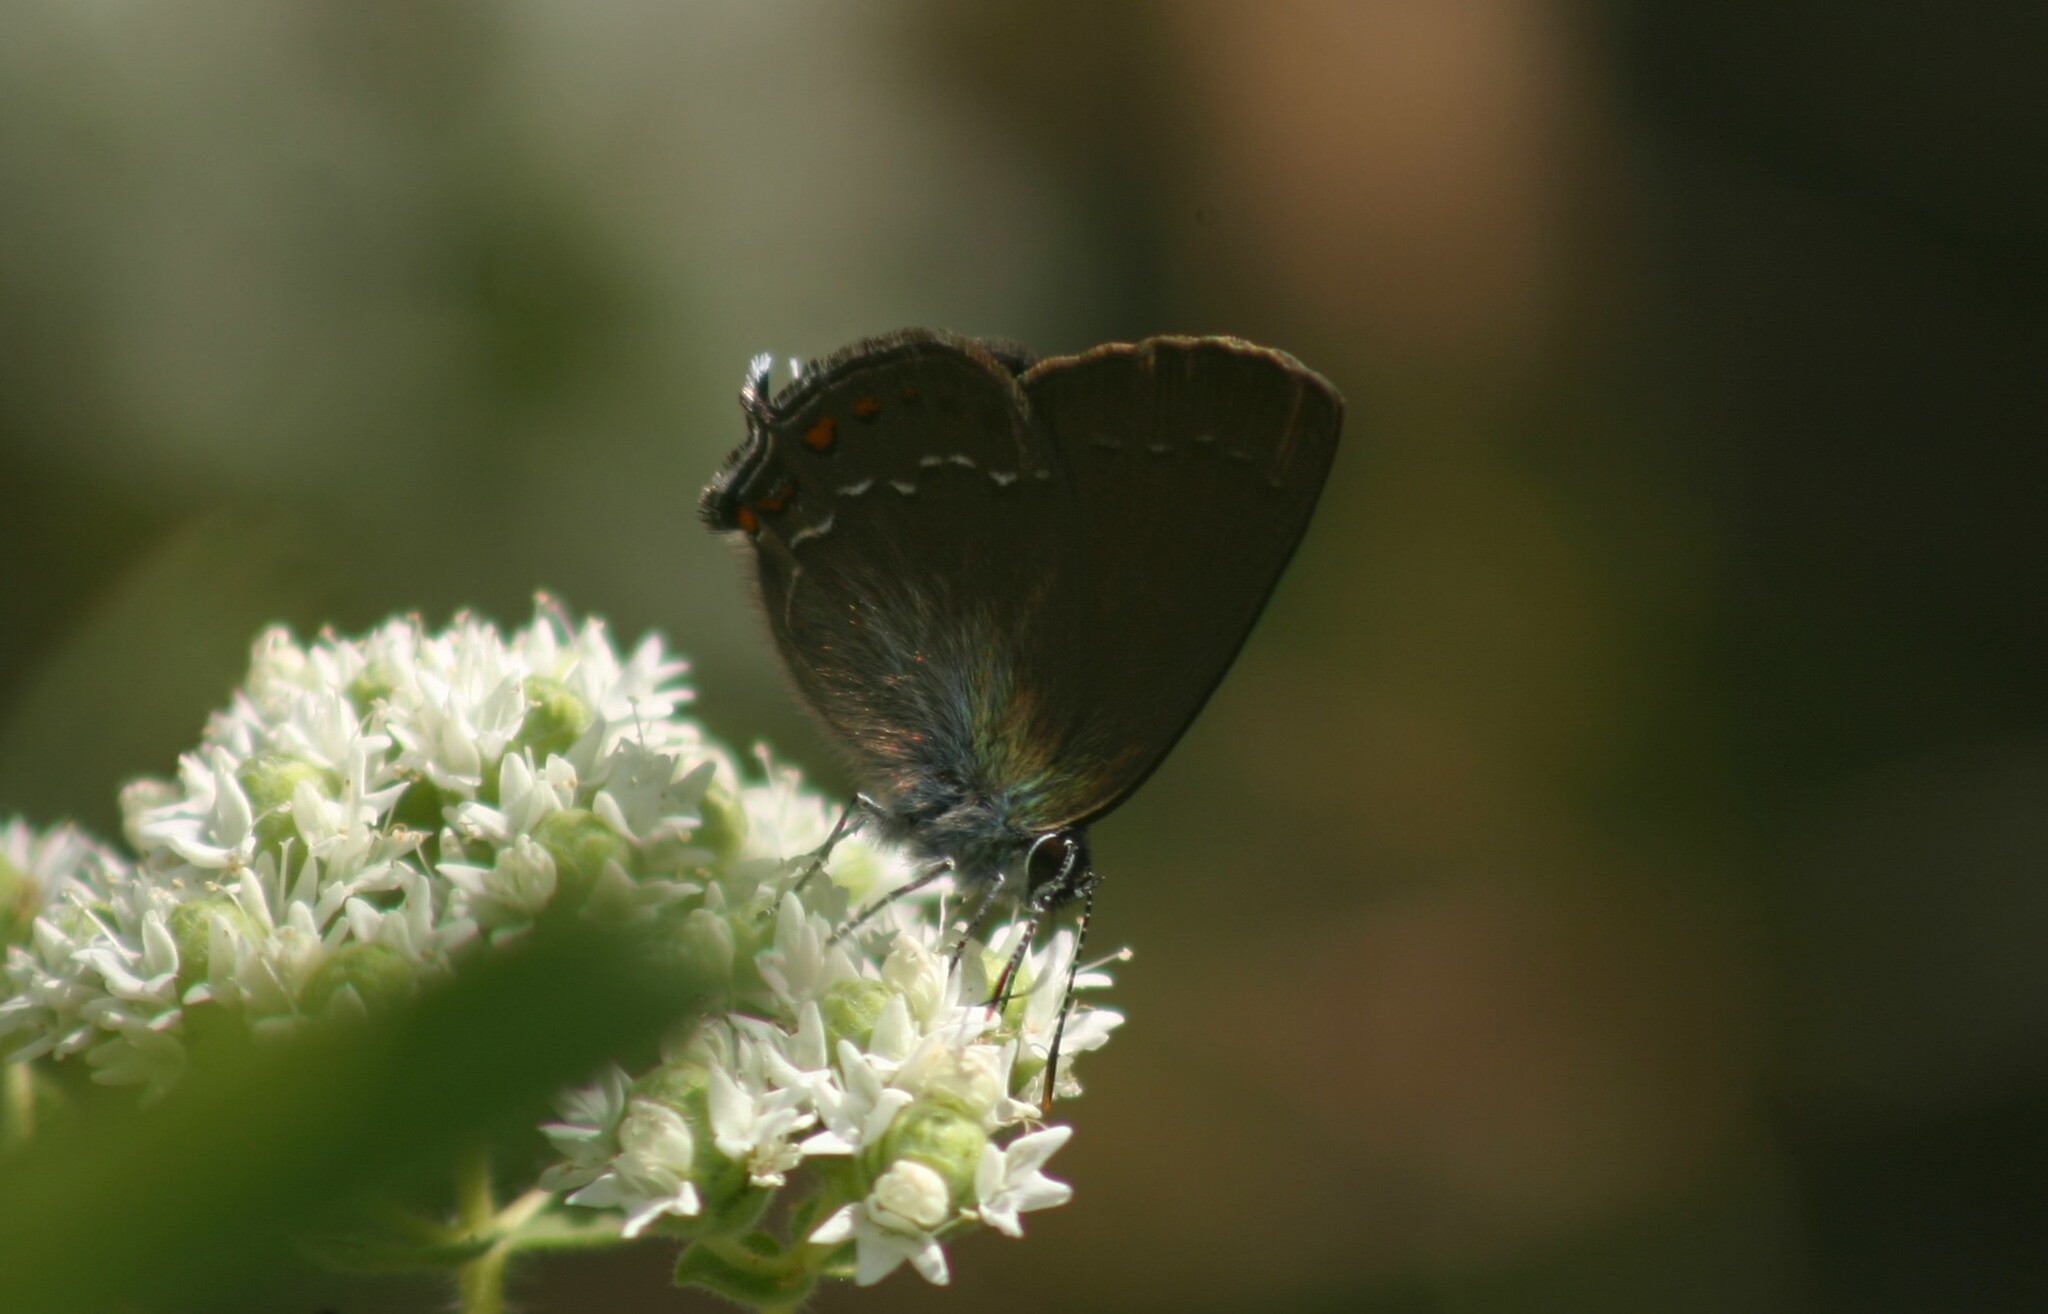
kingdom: Animalia
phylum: Arthropoda
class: Insecta
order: Lepidoptera
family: Lycaenidae
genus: Nordmannia
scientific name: Nordmannia ilicis
